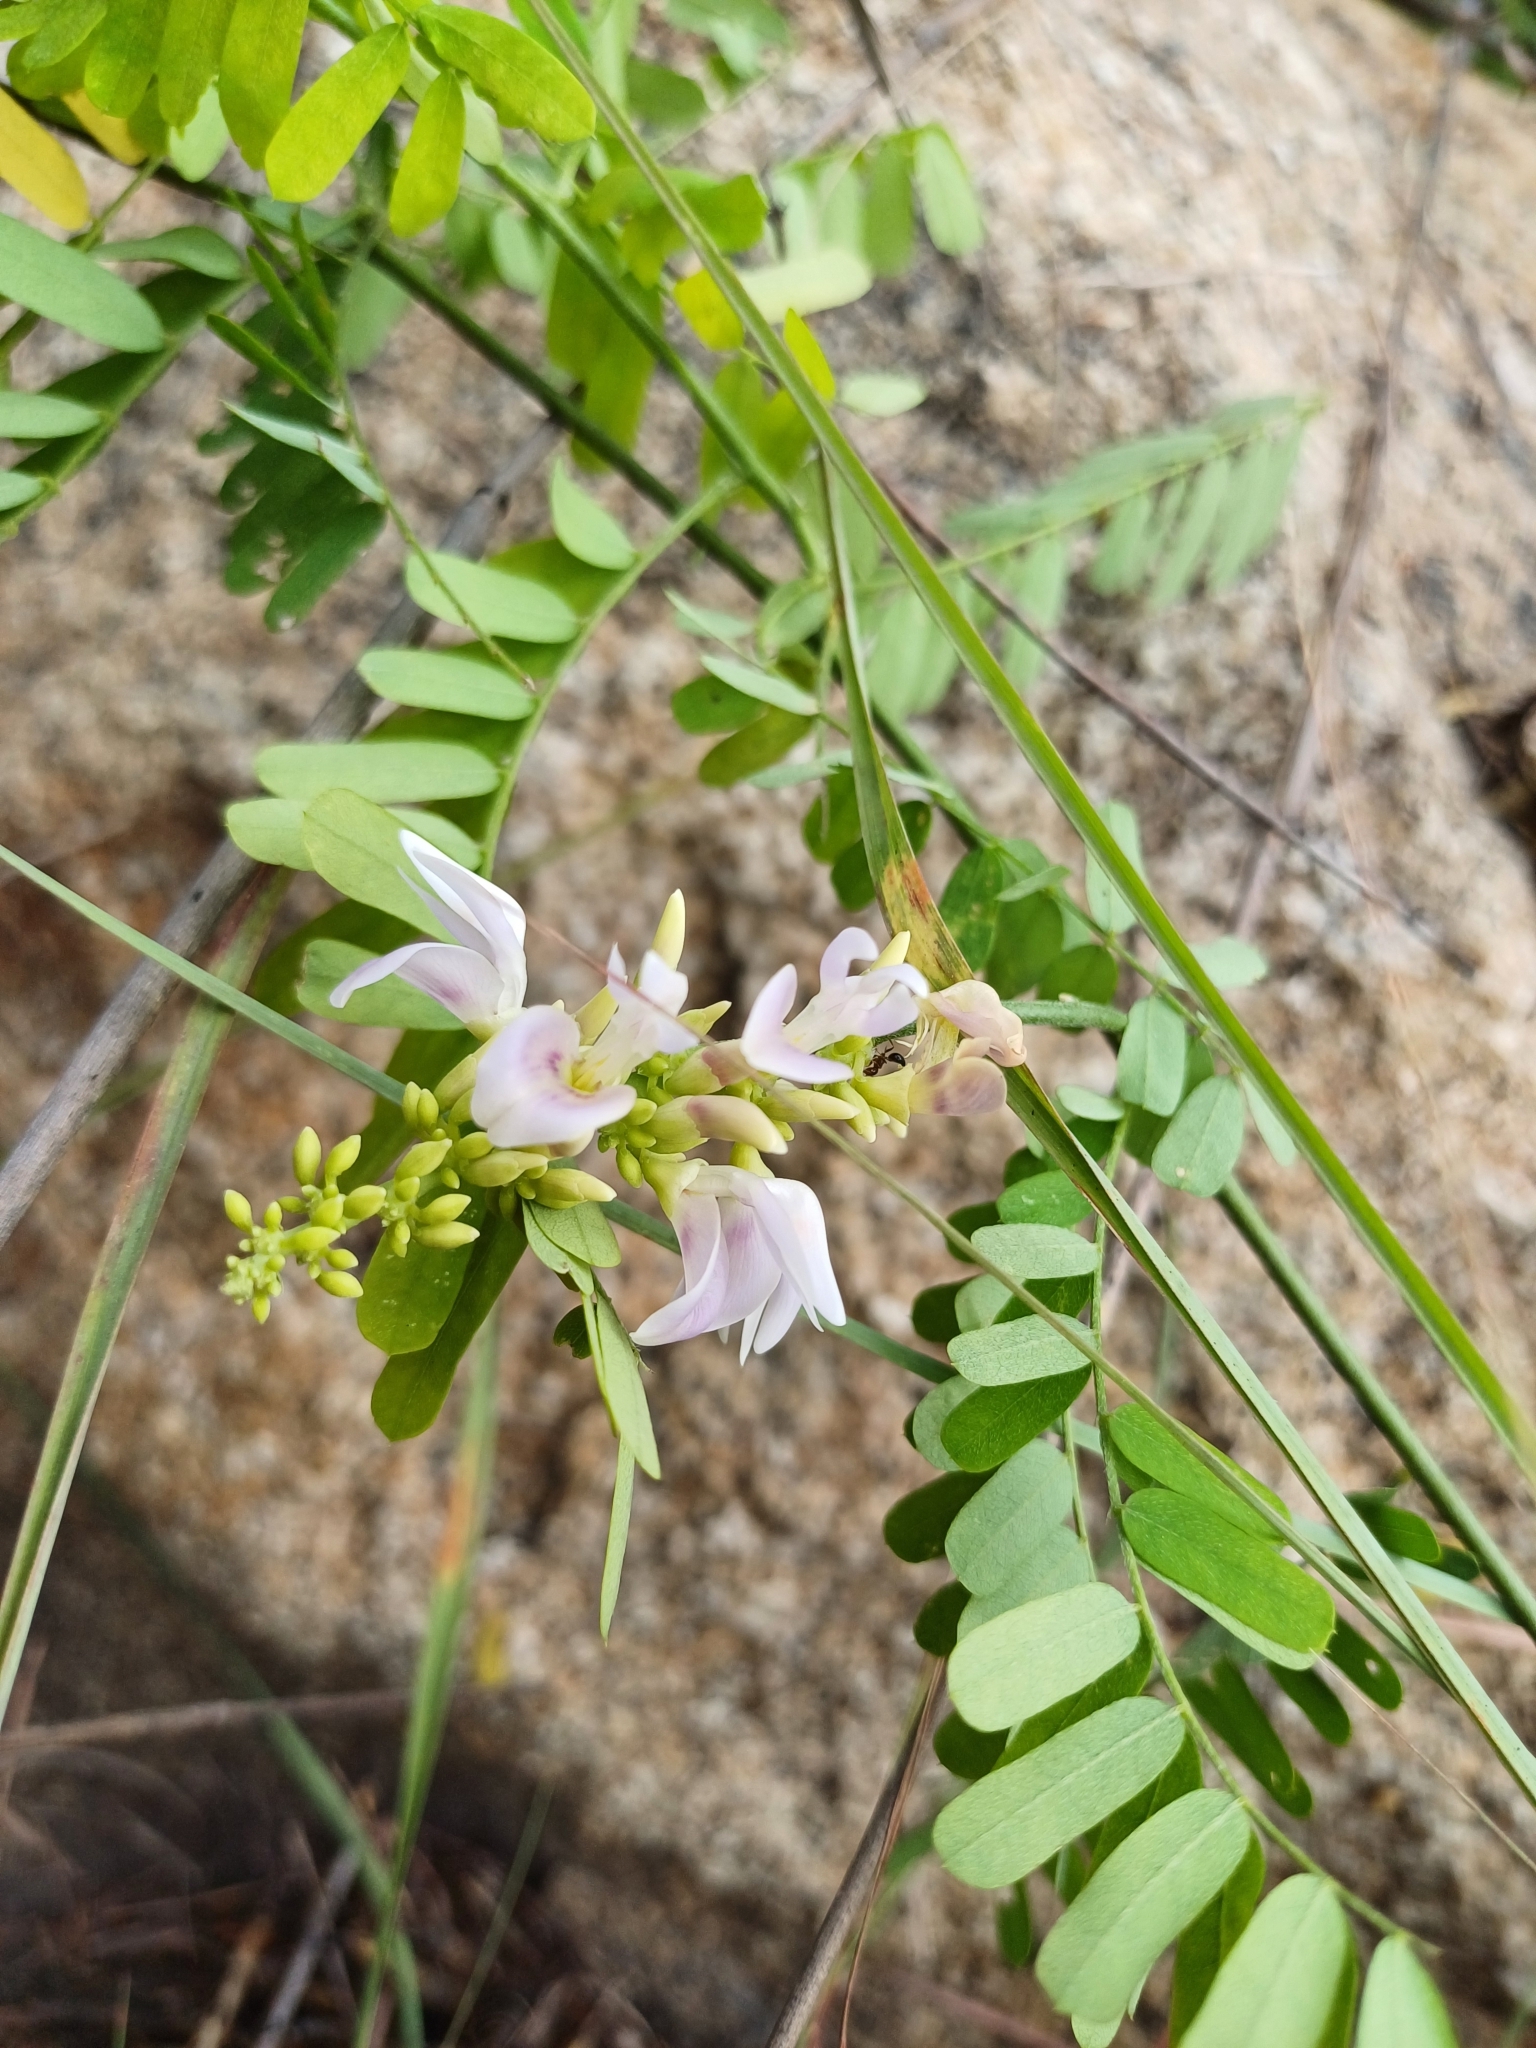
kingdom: Plantae
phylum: Tracheophyta
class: Magnoliopsida
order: Fabales
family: Fabaceae
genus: Abrus
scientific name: Abrus precatorius
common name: Rosarypea
